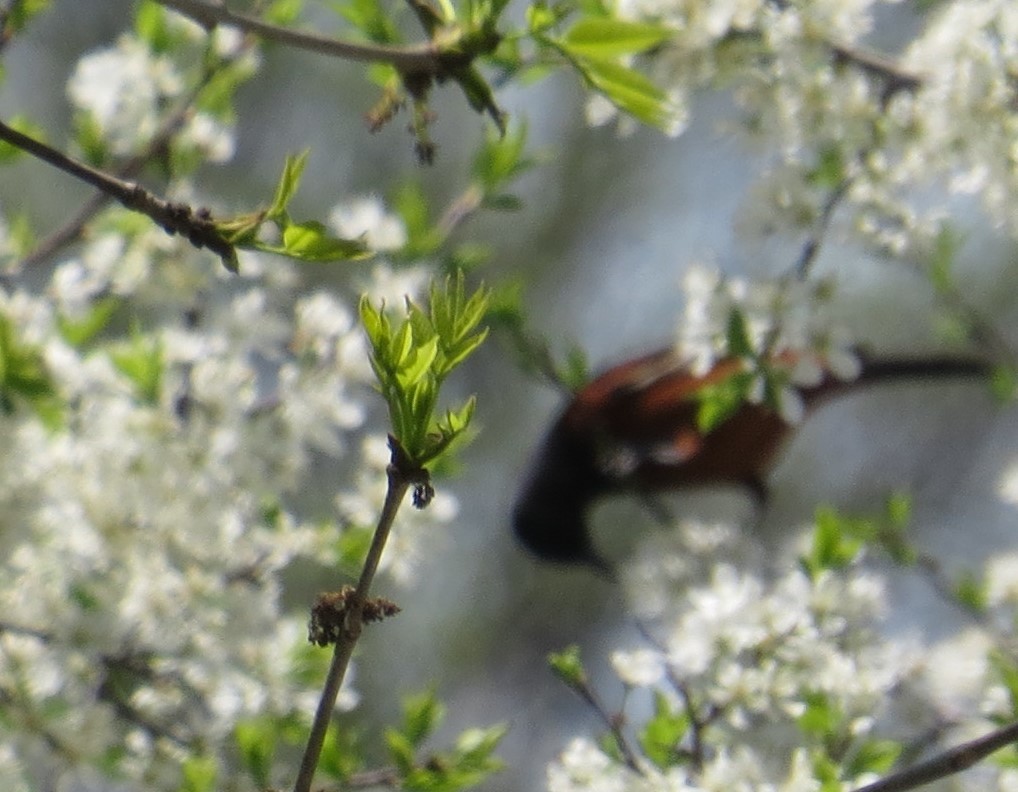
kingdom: Animalia
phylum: Chordata
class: Aves
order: Passeriformes
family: Icteridae
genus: Icterus
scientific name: Icterus spurius
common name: Orchard oriole
